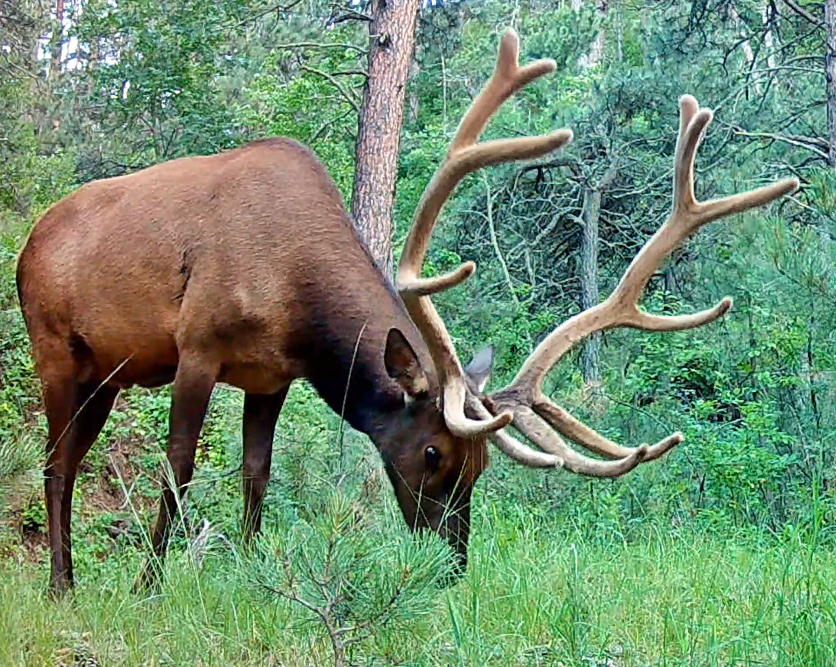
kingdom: Animalia
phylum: Chordata
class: Mammalia
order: Artiodactyla
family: Cervidae
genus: Cervus
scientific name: Cervus elaphus
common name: Red deer
